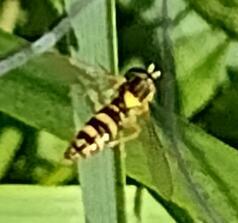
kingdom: Animalia
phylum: Arthropoda
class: Insecta
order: Diptera
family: Syrphidae
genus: Sphaerophoria
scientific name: Sphaerophoria
